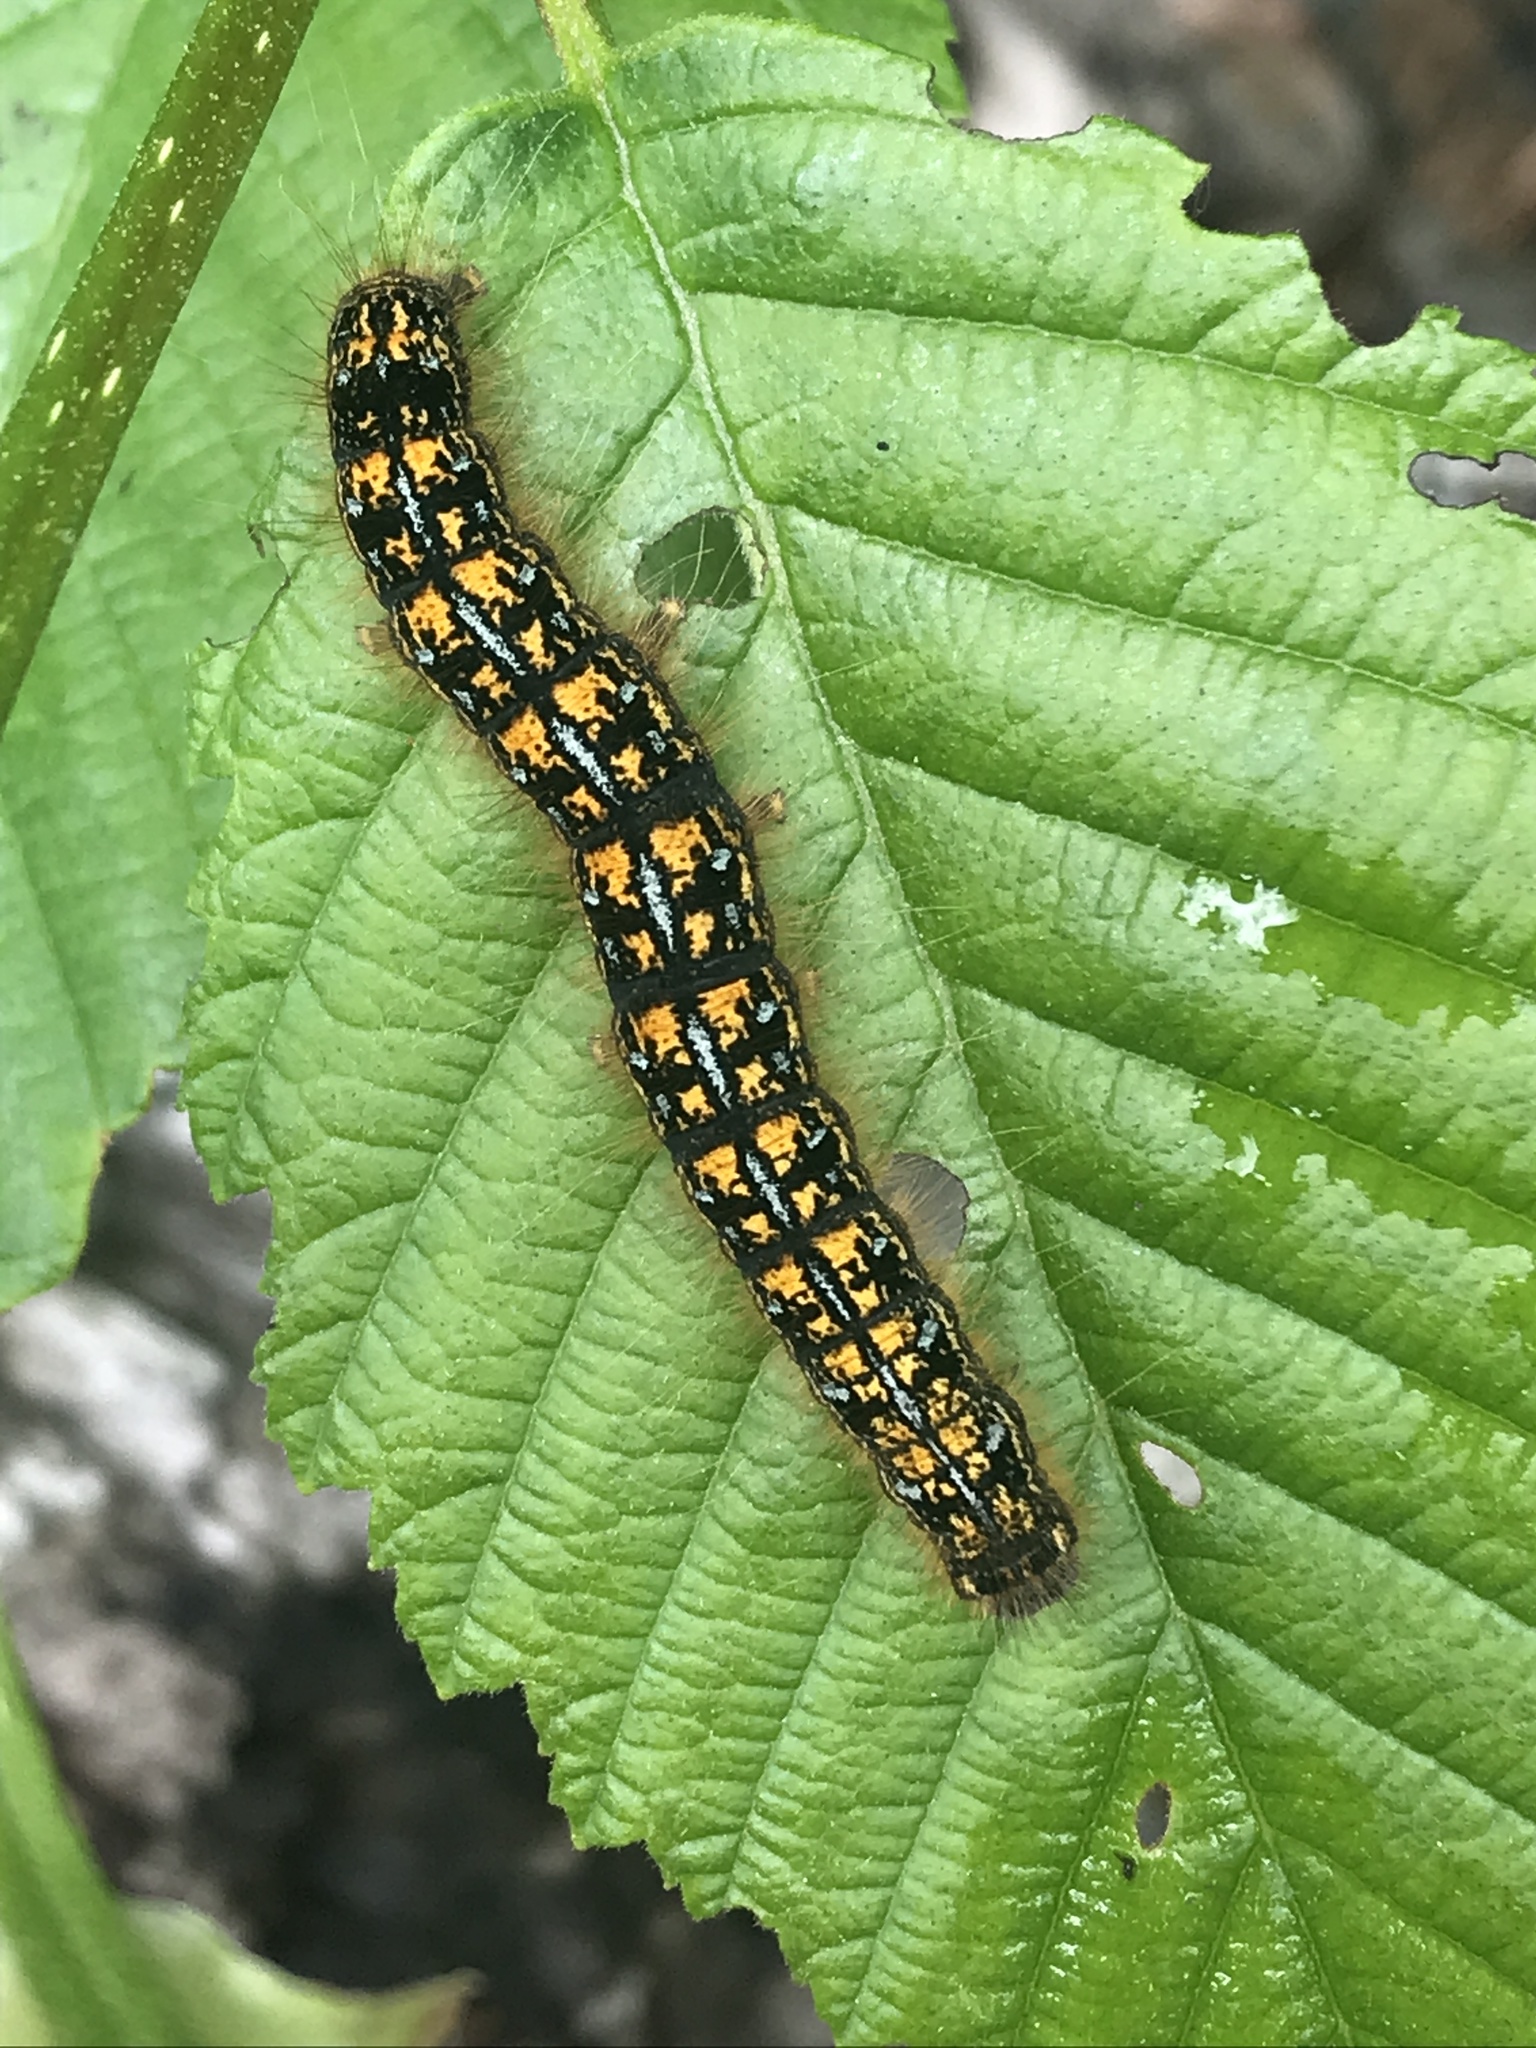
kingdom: Animalia
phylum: Arthropoda
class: Insecta
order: Lepidoptera
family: Lasiocampidae
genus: Malacosoma
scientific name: Malacosoma californica
